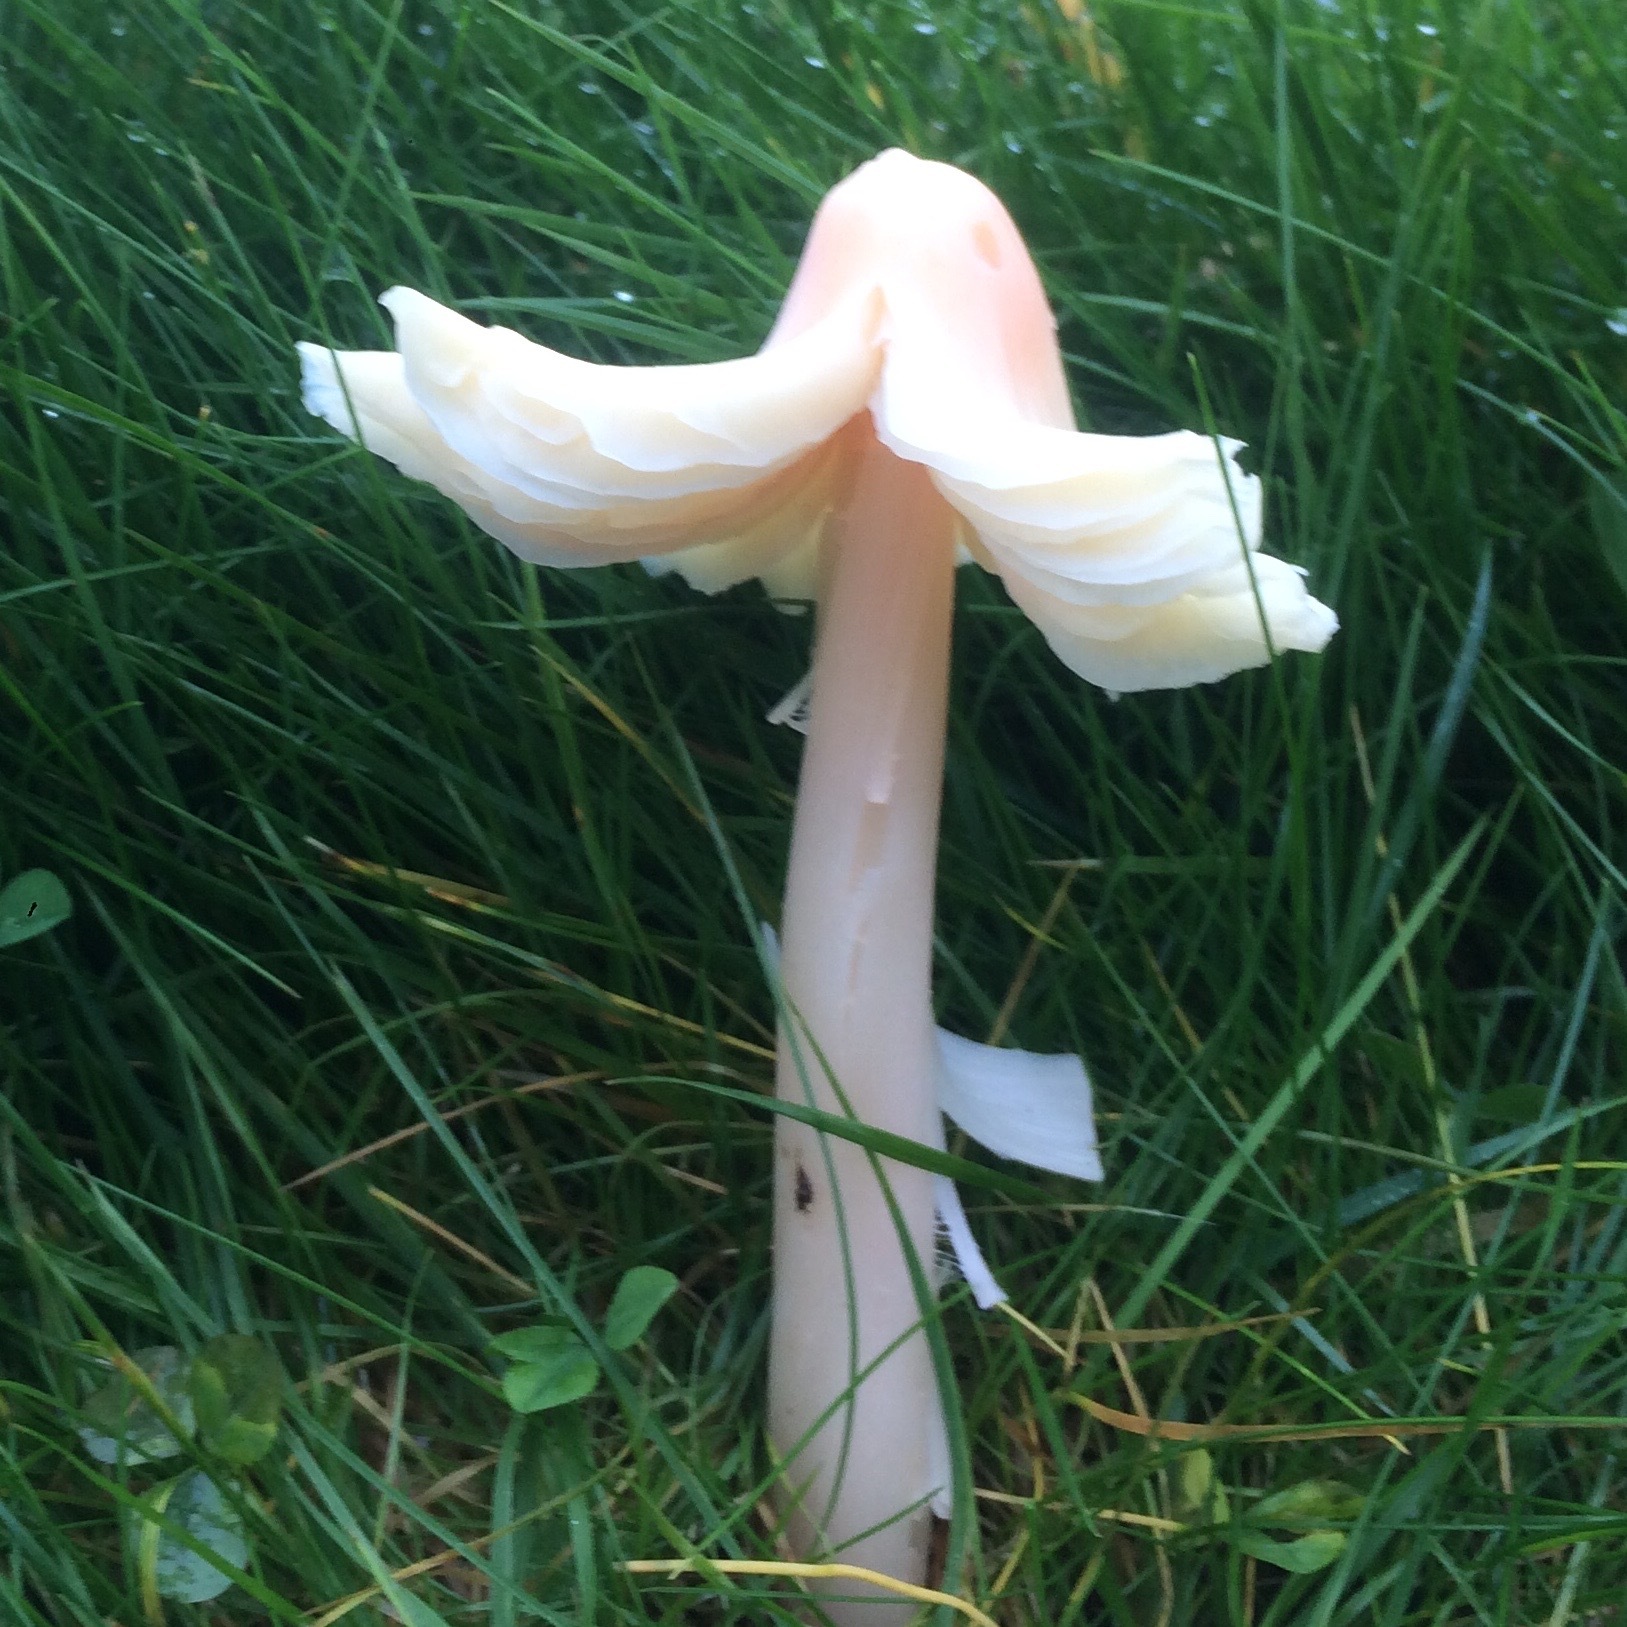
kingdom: Fungi
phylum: Basidiomycota
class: Agaricomycetes
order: Agaricales
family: Hygrophoraceae
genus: Porpolomopsis
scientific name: Porpolomopsis calyptriformis
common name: Pink waxcap
